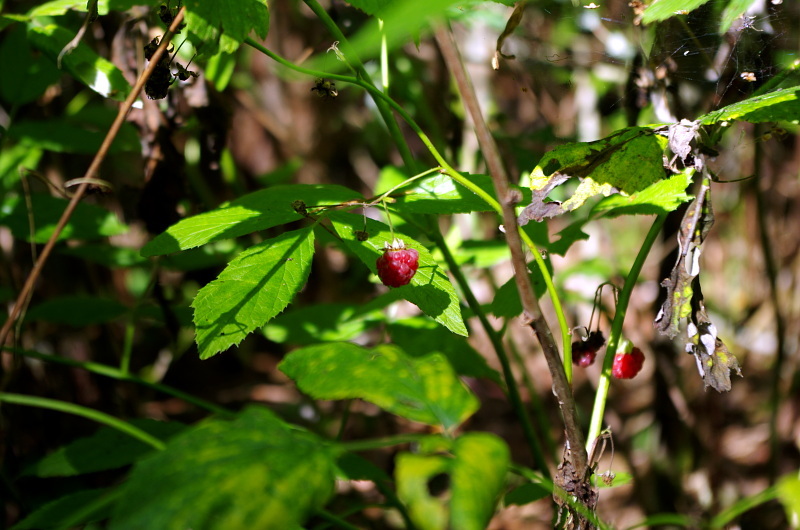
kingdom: Plantae
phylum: Tracheophyta
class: Magnoliopsida
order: Rosales
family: Rosaceae
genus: Rubus
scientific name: Rubus idaeus
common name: Raspberry
